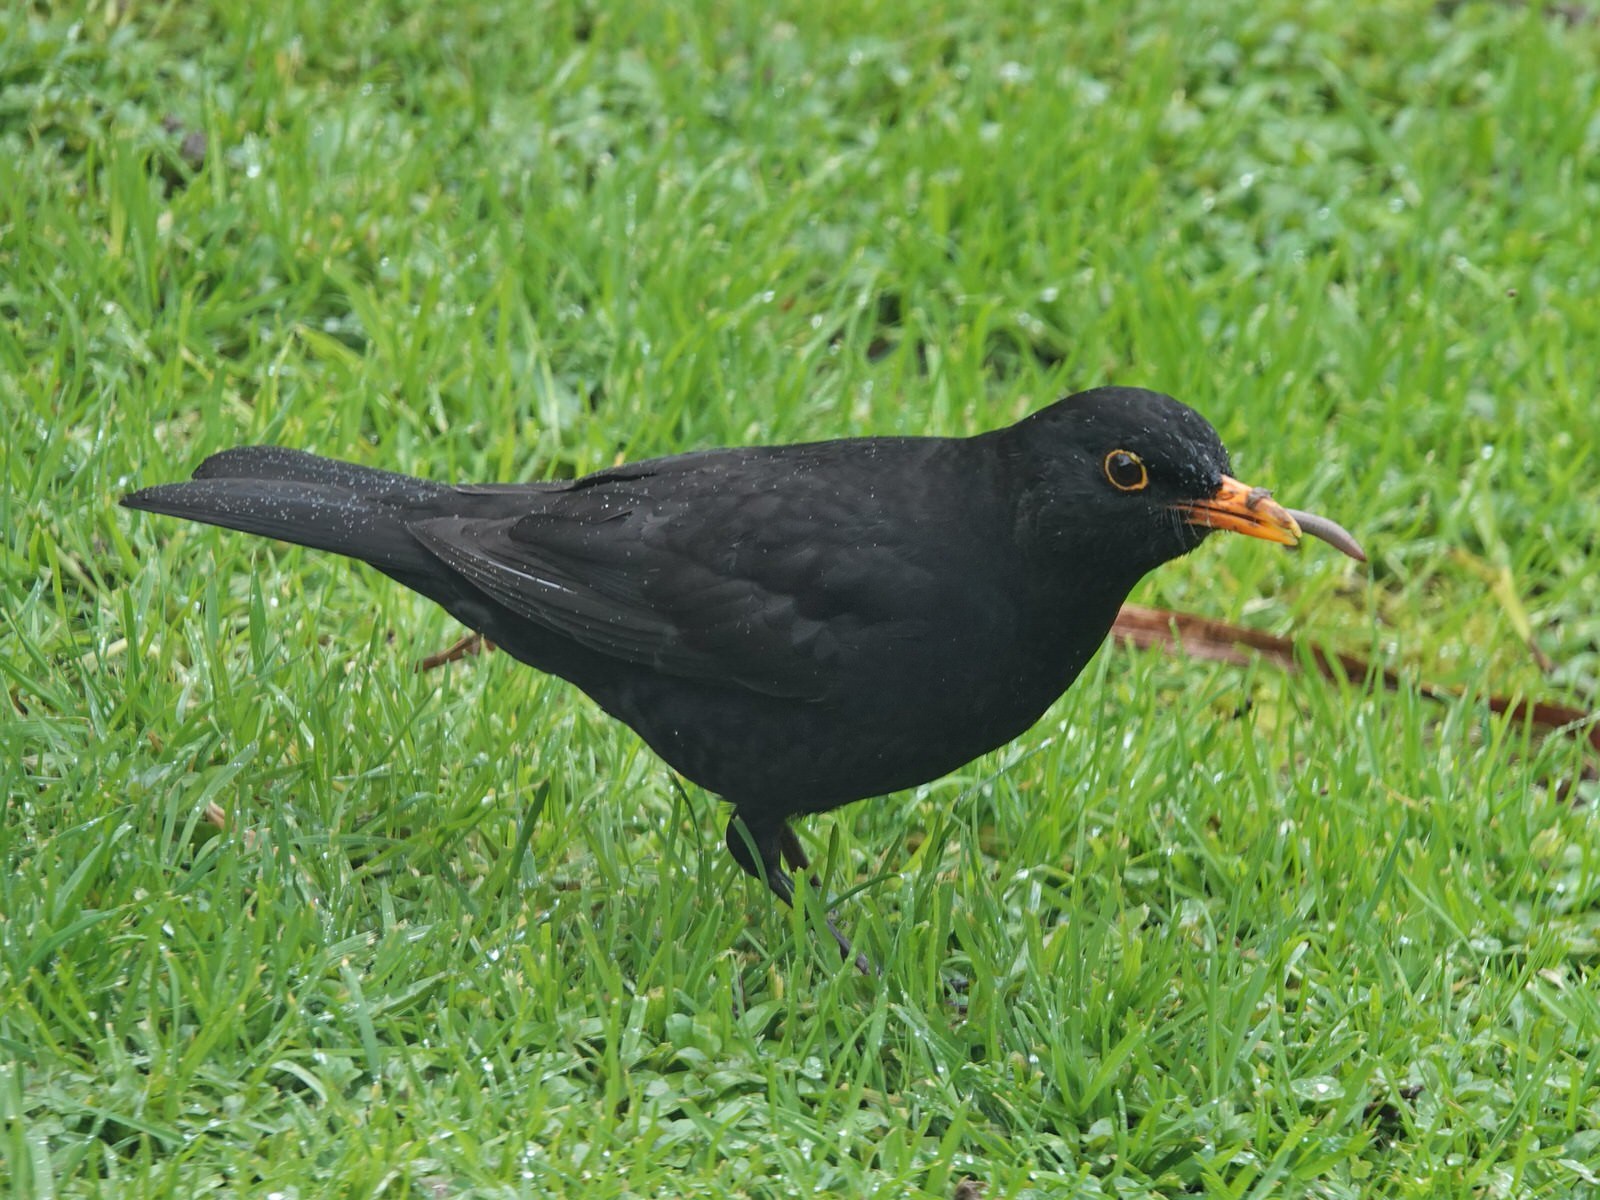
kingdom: Animalia
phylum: Chordata
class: Aves
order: Passeriformes
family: Turdidae
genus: Turdus
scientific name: Turdus merula
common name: Common blackbird
